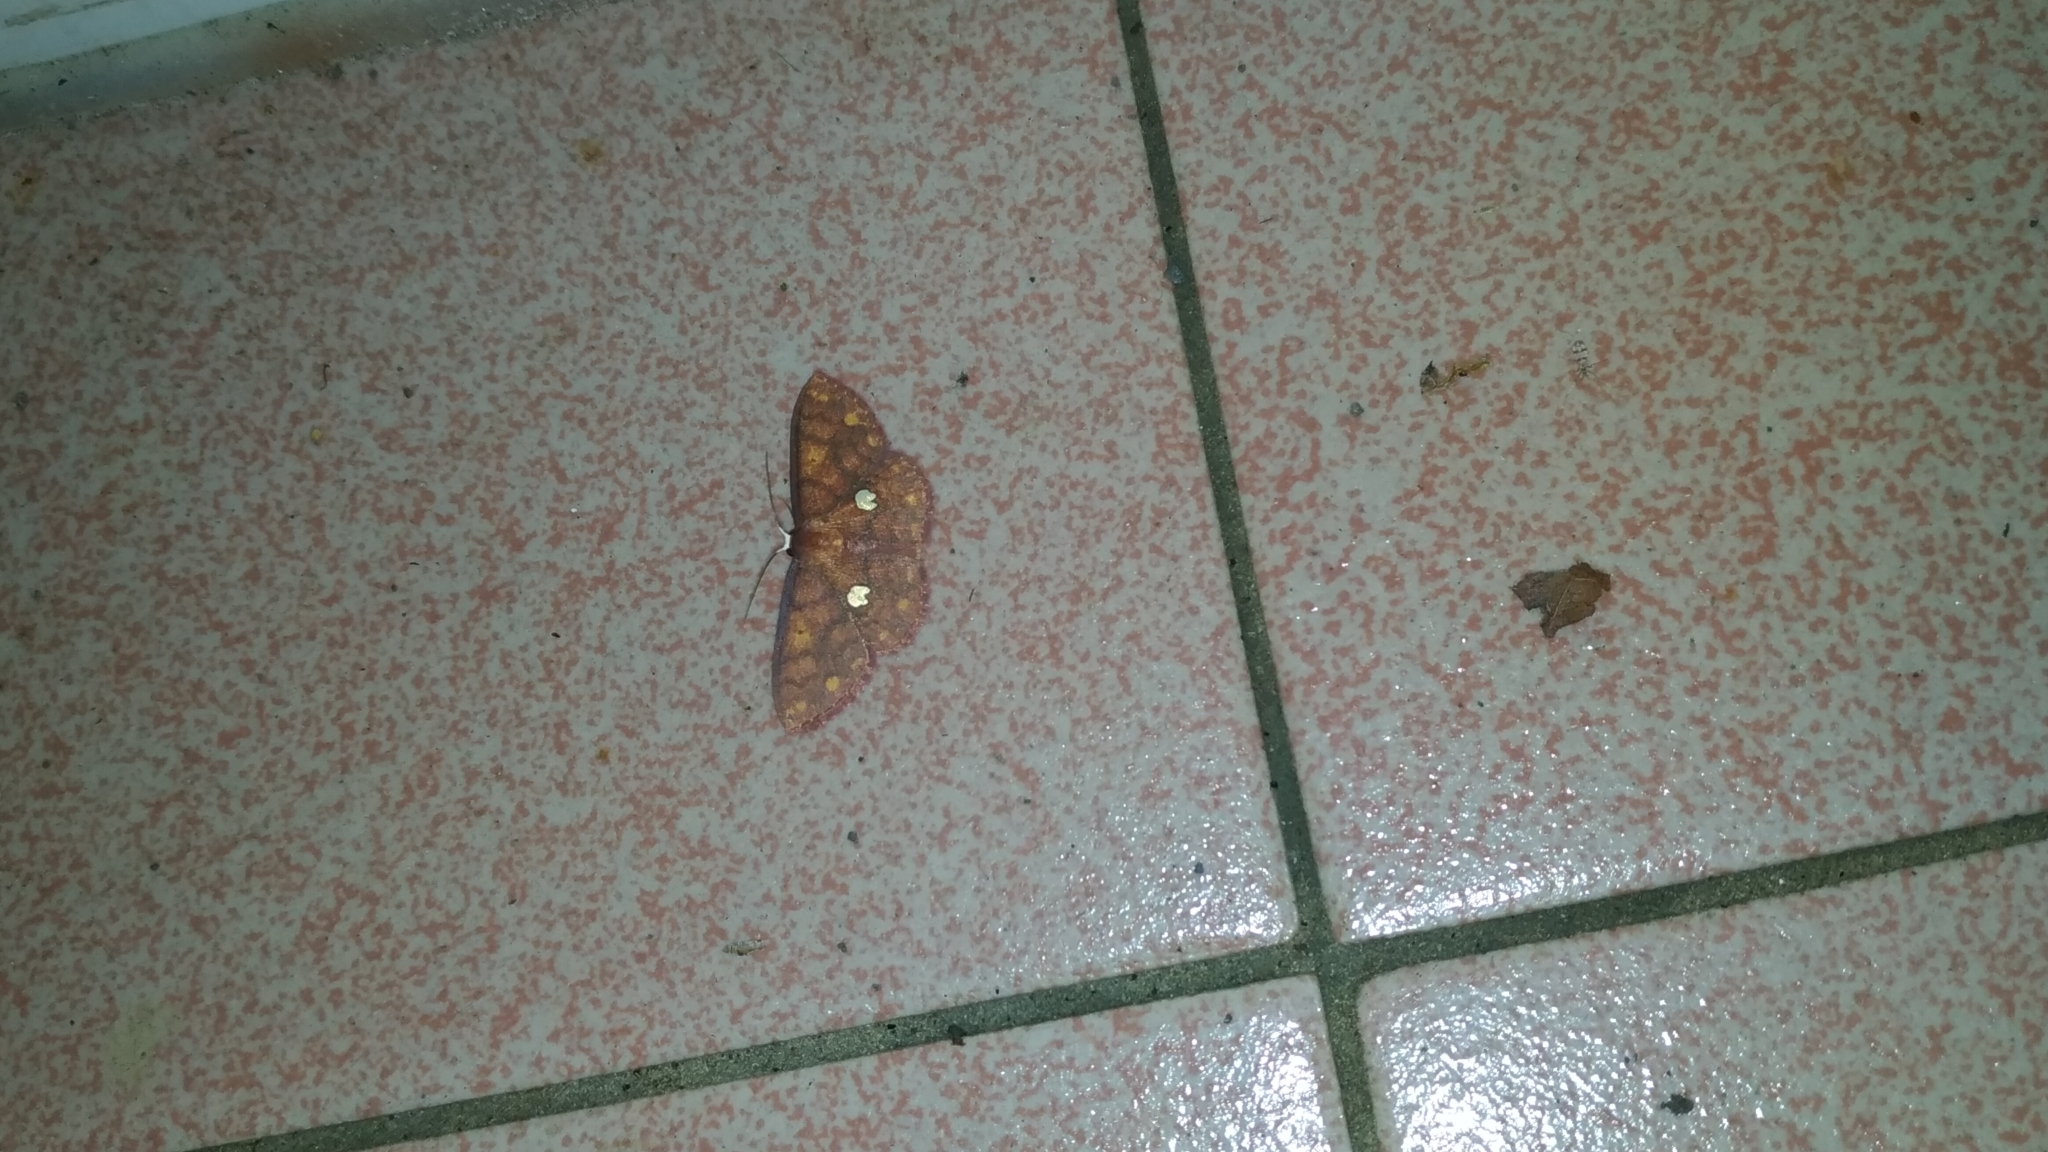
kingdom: Animalia
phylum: Arthropoda
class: Insecta
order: Lepidoptera
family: Geometridae
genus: Discoglypha
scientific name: Discoglypha locupletata
